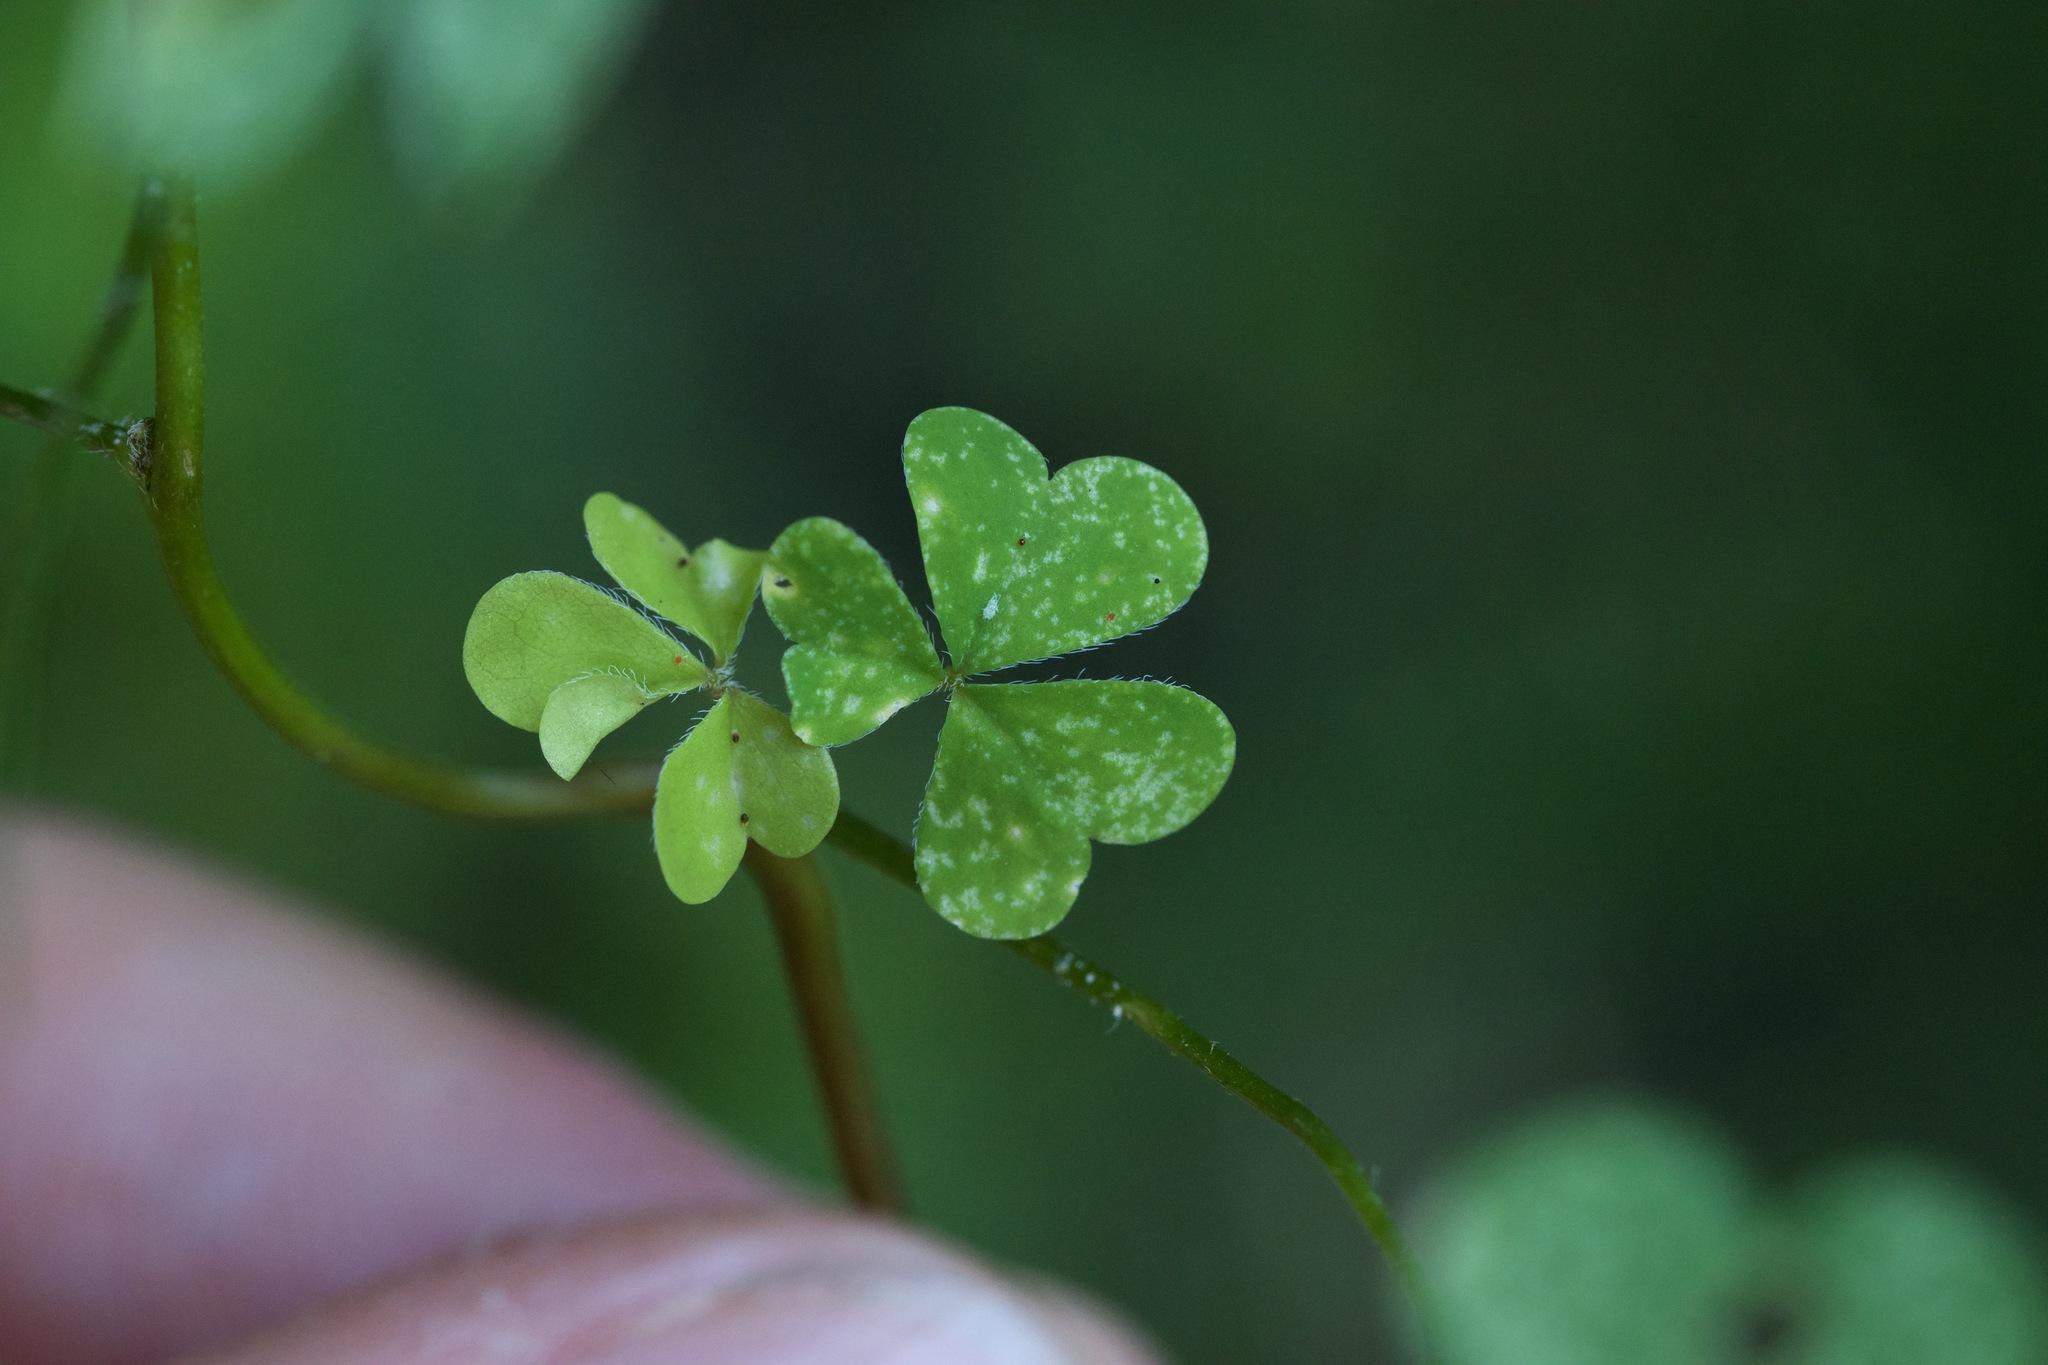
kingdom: Plantae
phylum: Tracheophyta
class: Magnoliopsida
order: Oxalidales
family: Oxalidaceae
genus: Oxalis
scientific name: Oxalis corniculata
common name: Procumbent yellow-sorrel
